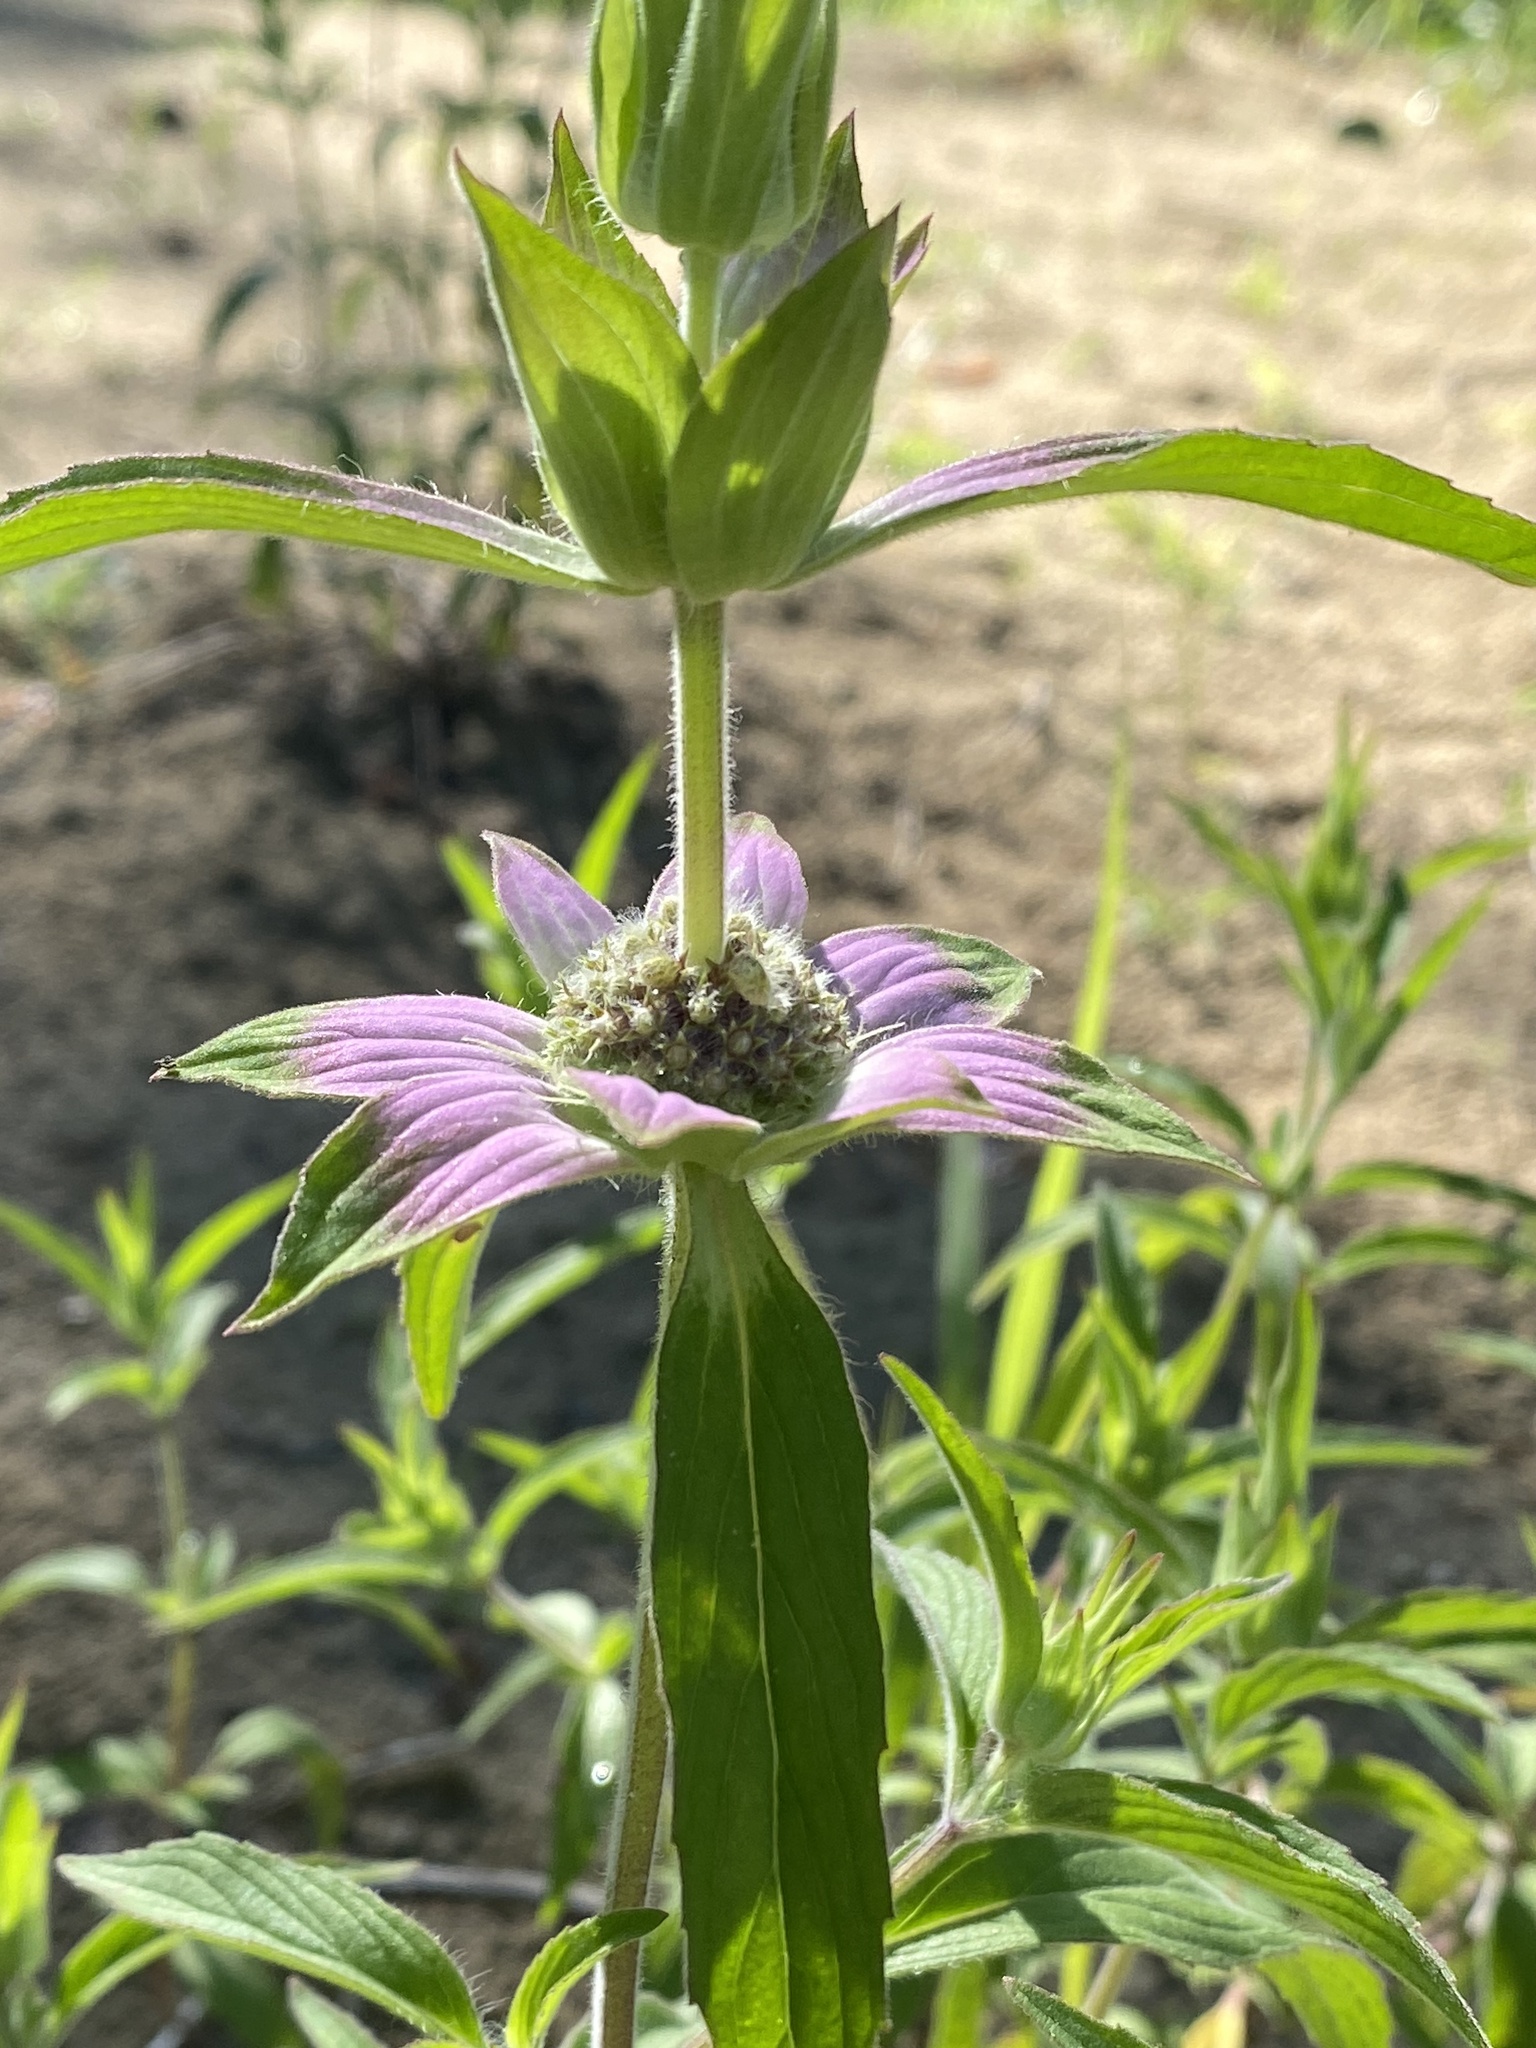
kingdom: Plantae
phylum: Tracheophyta
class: Magnoliopsida
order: Lamiales
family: Lamiaceae
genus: Monarda
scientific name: Monarda punctata
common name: Dotted monarda
